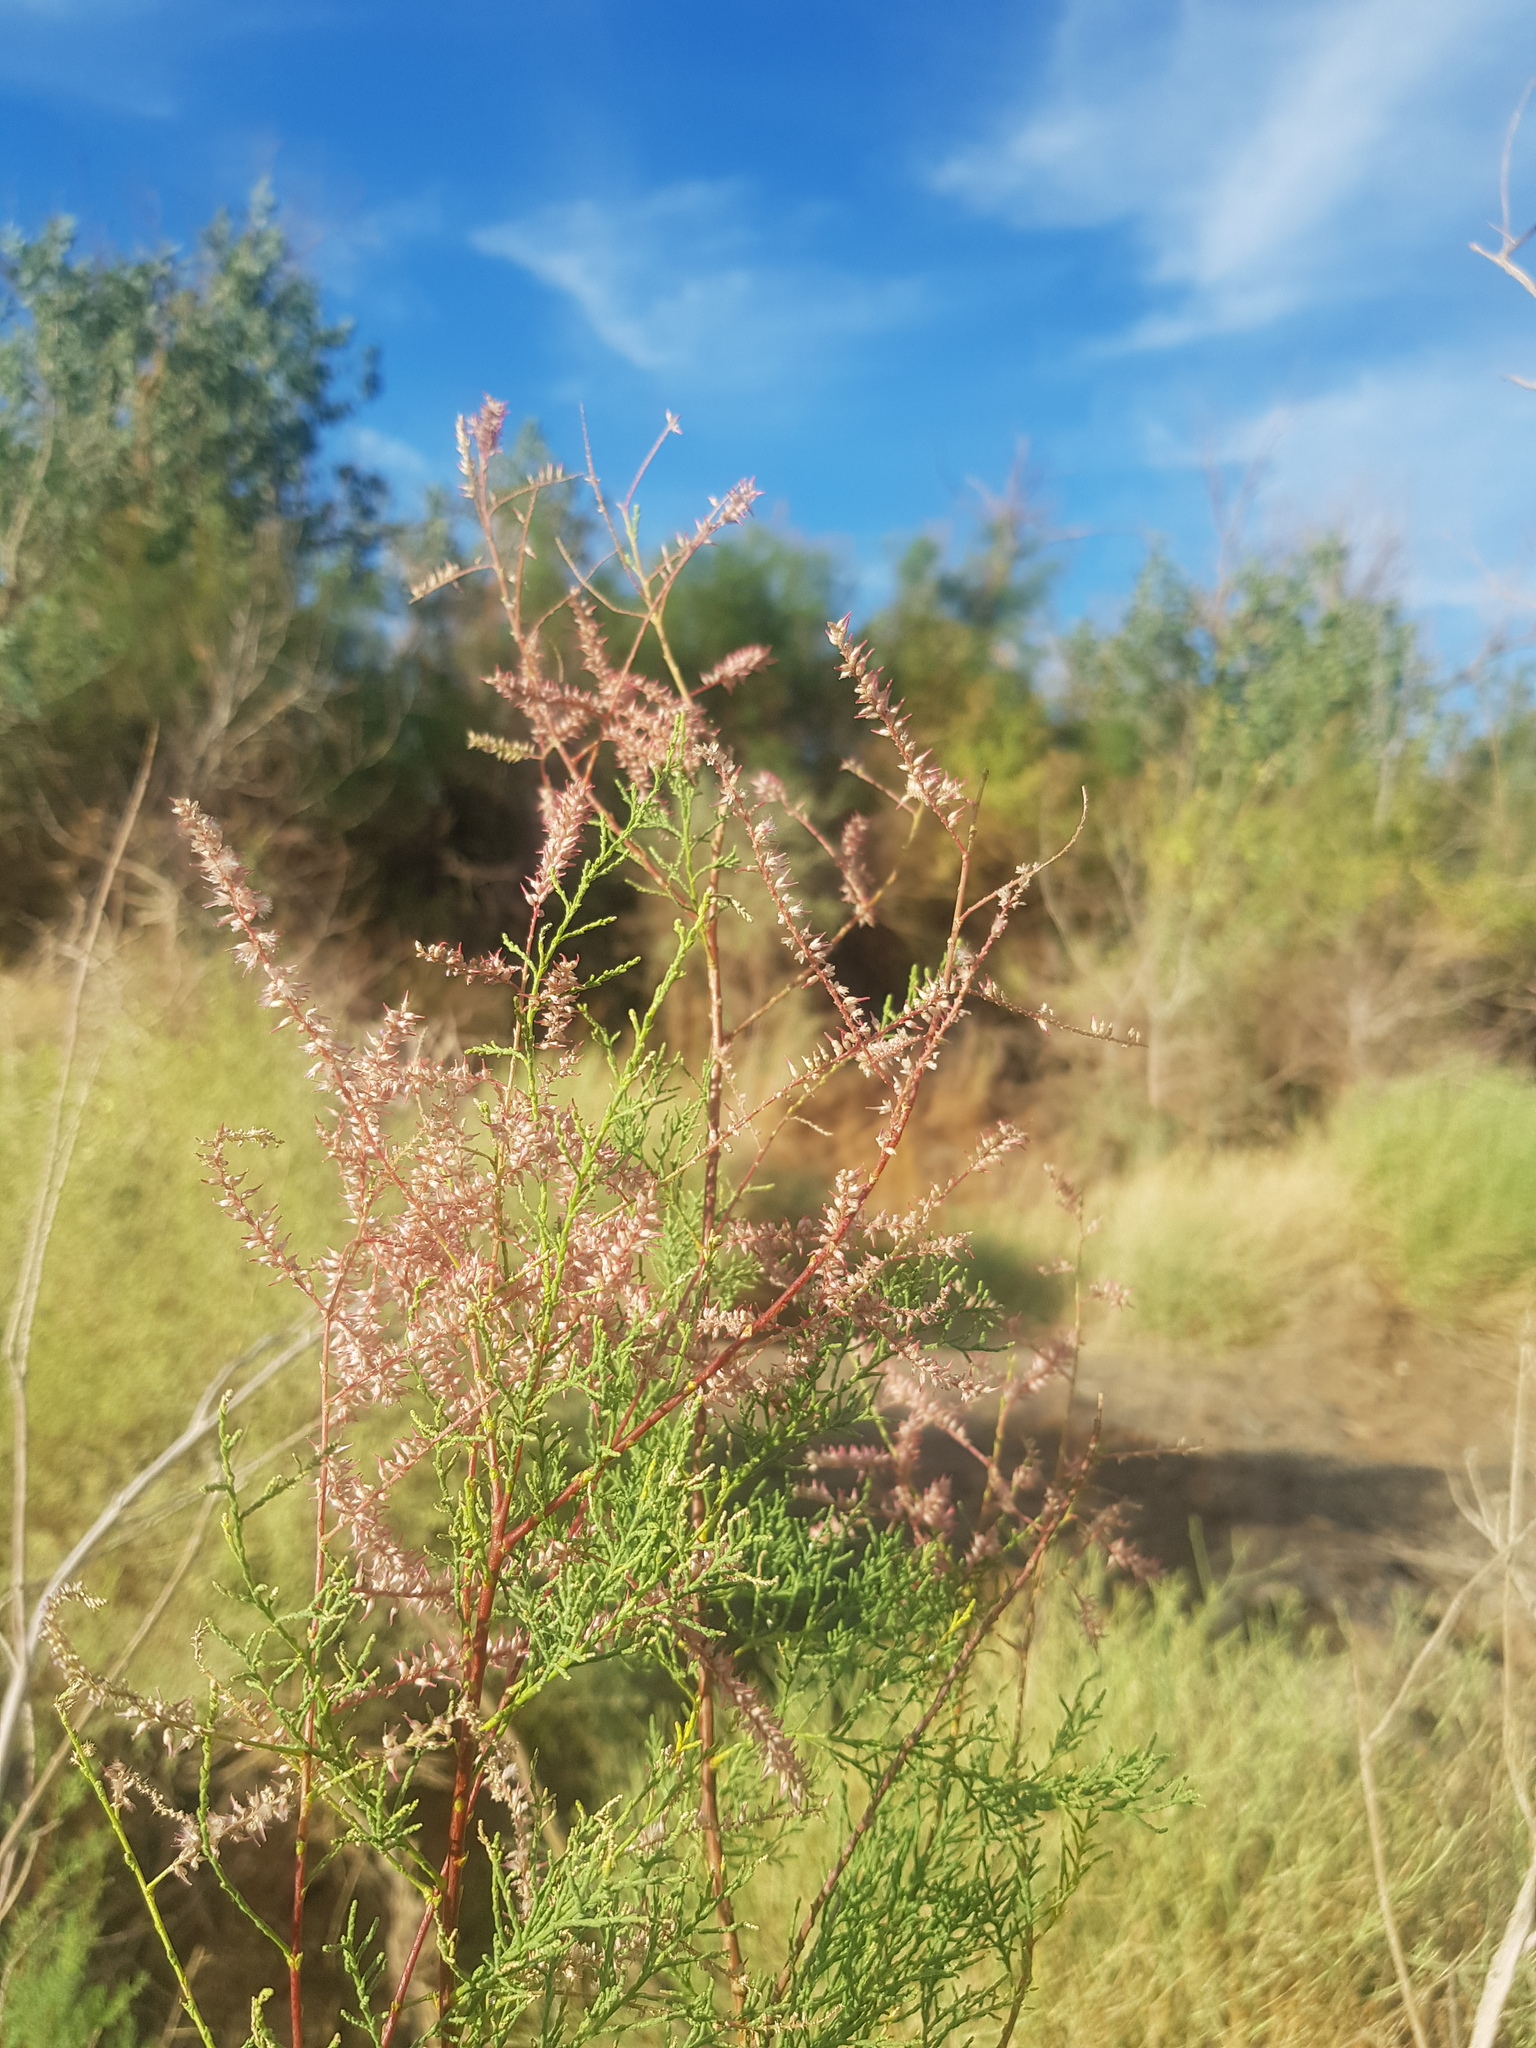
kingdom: Plantae
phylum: Tracheophyta
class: Magnoliopsida
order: Caryophyllales
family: Tamaricaceae
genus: Tamarix
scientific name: Tamarix ramosissima
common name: Pink tamarisk
